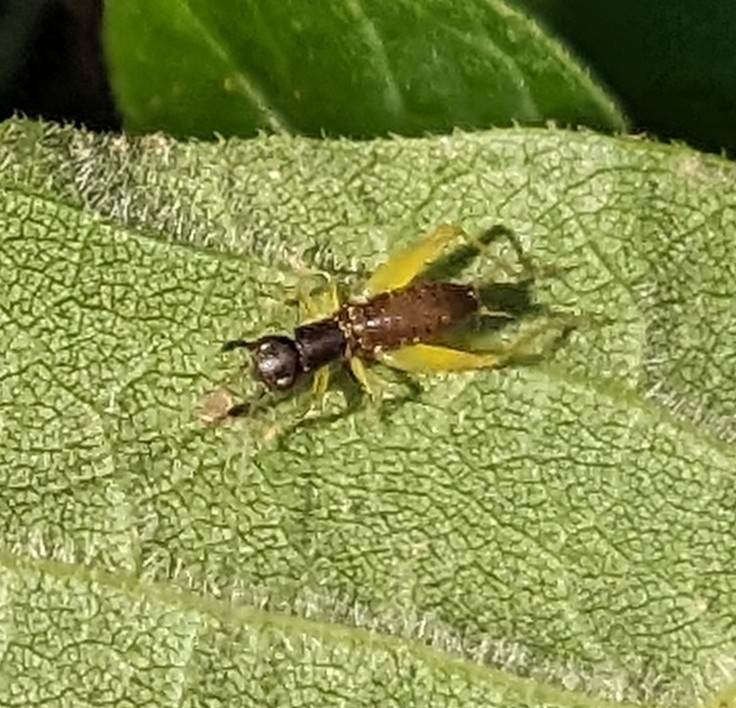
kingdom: Animalia
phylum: Arthropoda
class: Insecta
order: Orthoptera
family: Trigonidiidae
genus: Phyllopalpus
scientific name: Phyllopalpus pulchellus
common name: Handsome trig
